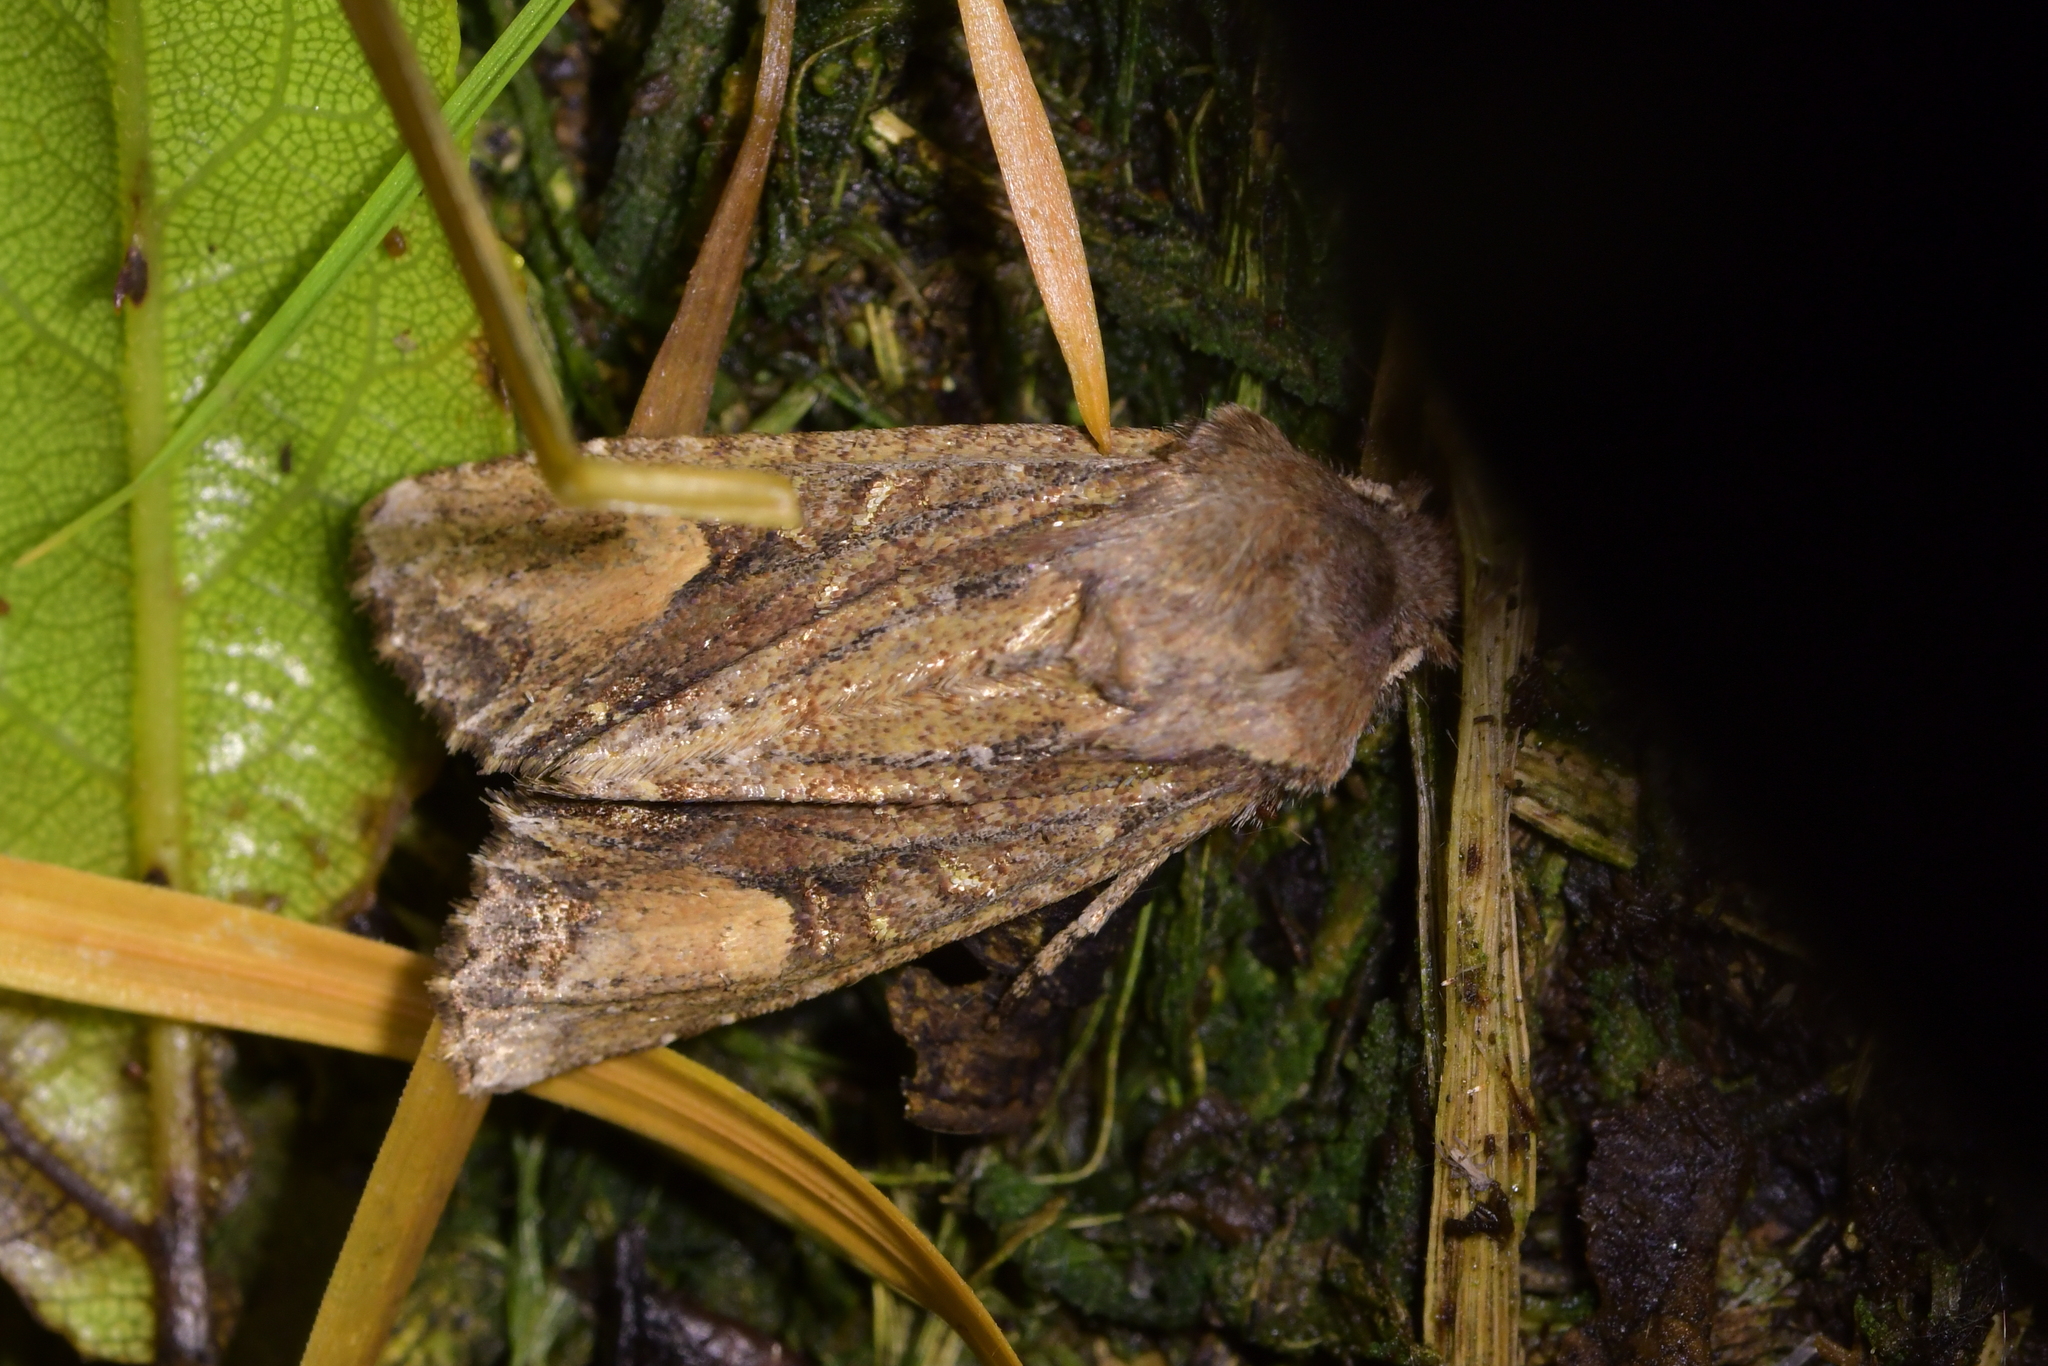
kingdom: Animalia
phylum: Arthropoda
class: Insecta
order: Lepidoptera
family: Noctuidae
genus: Ichneutica
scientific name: Ichneutica
